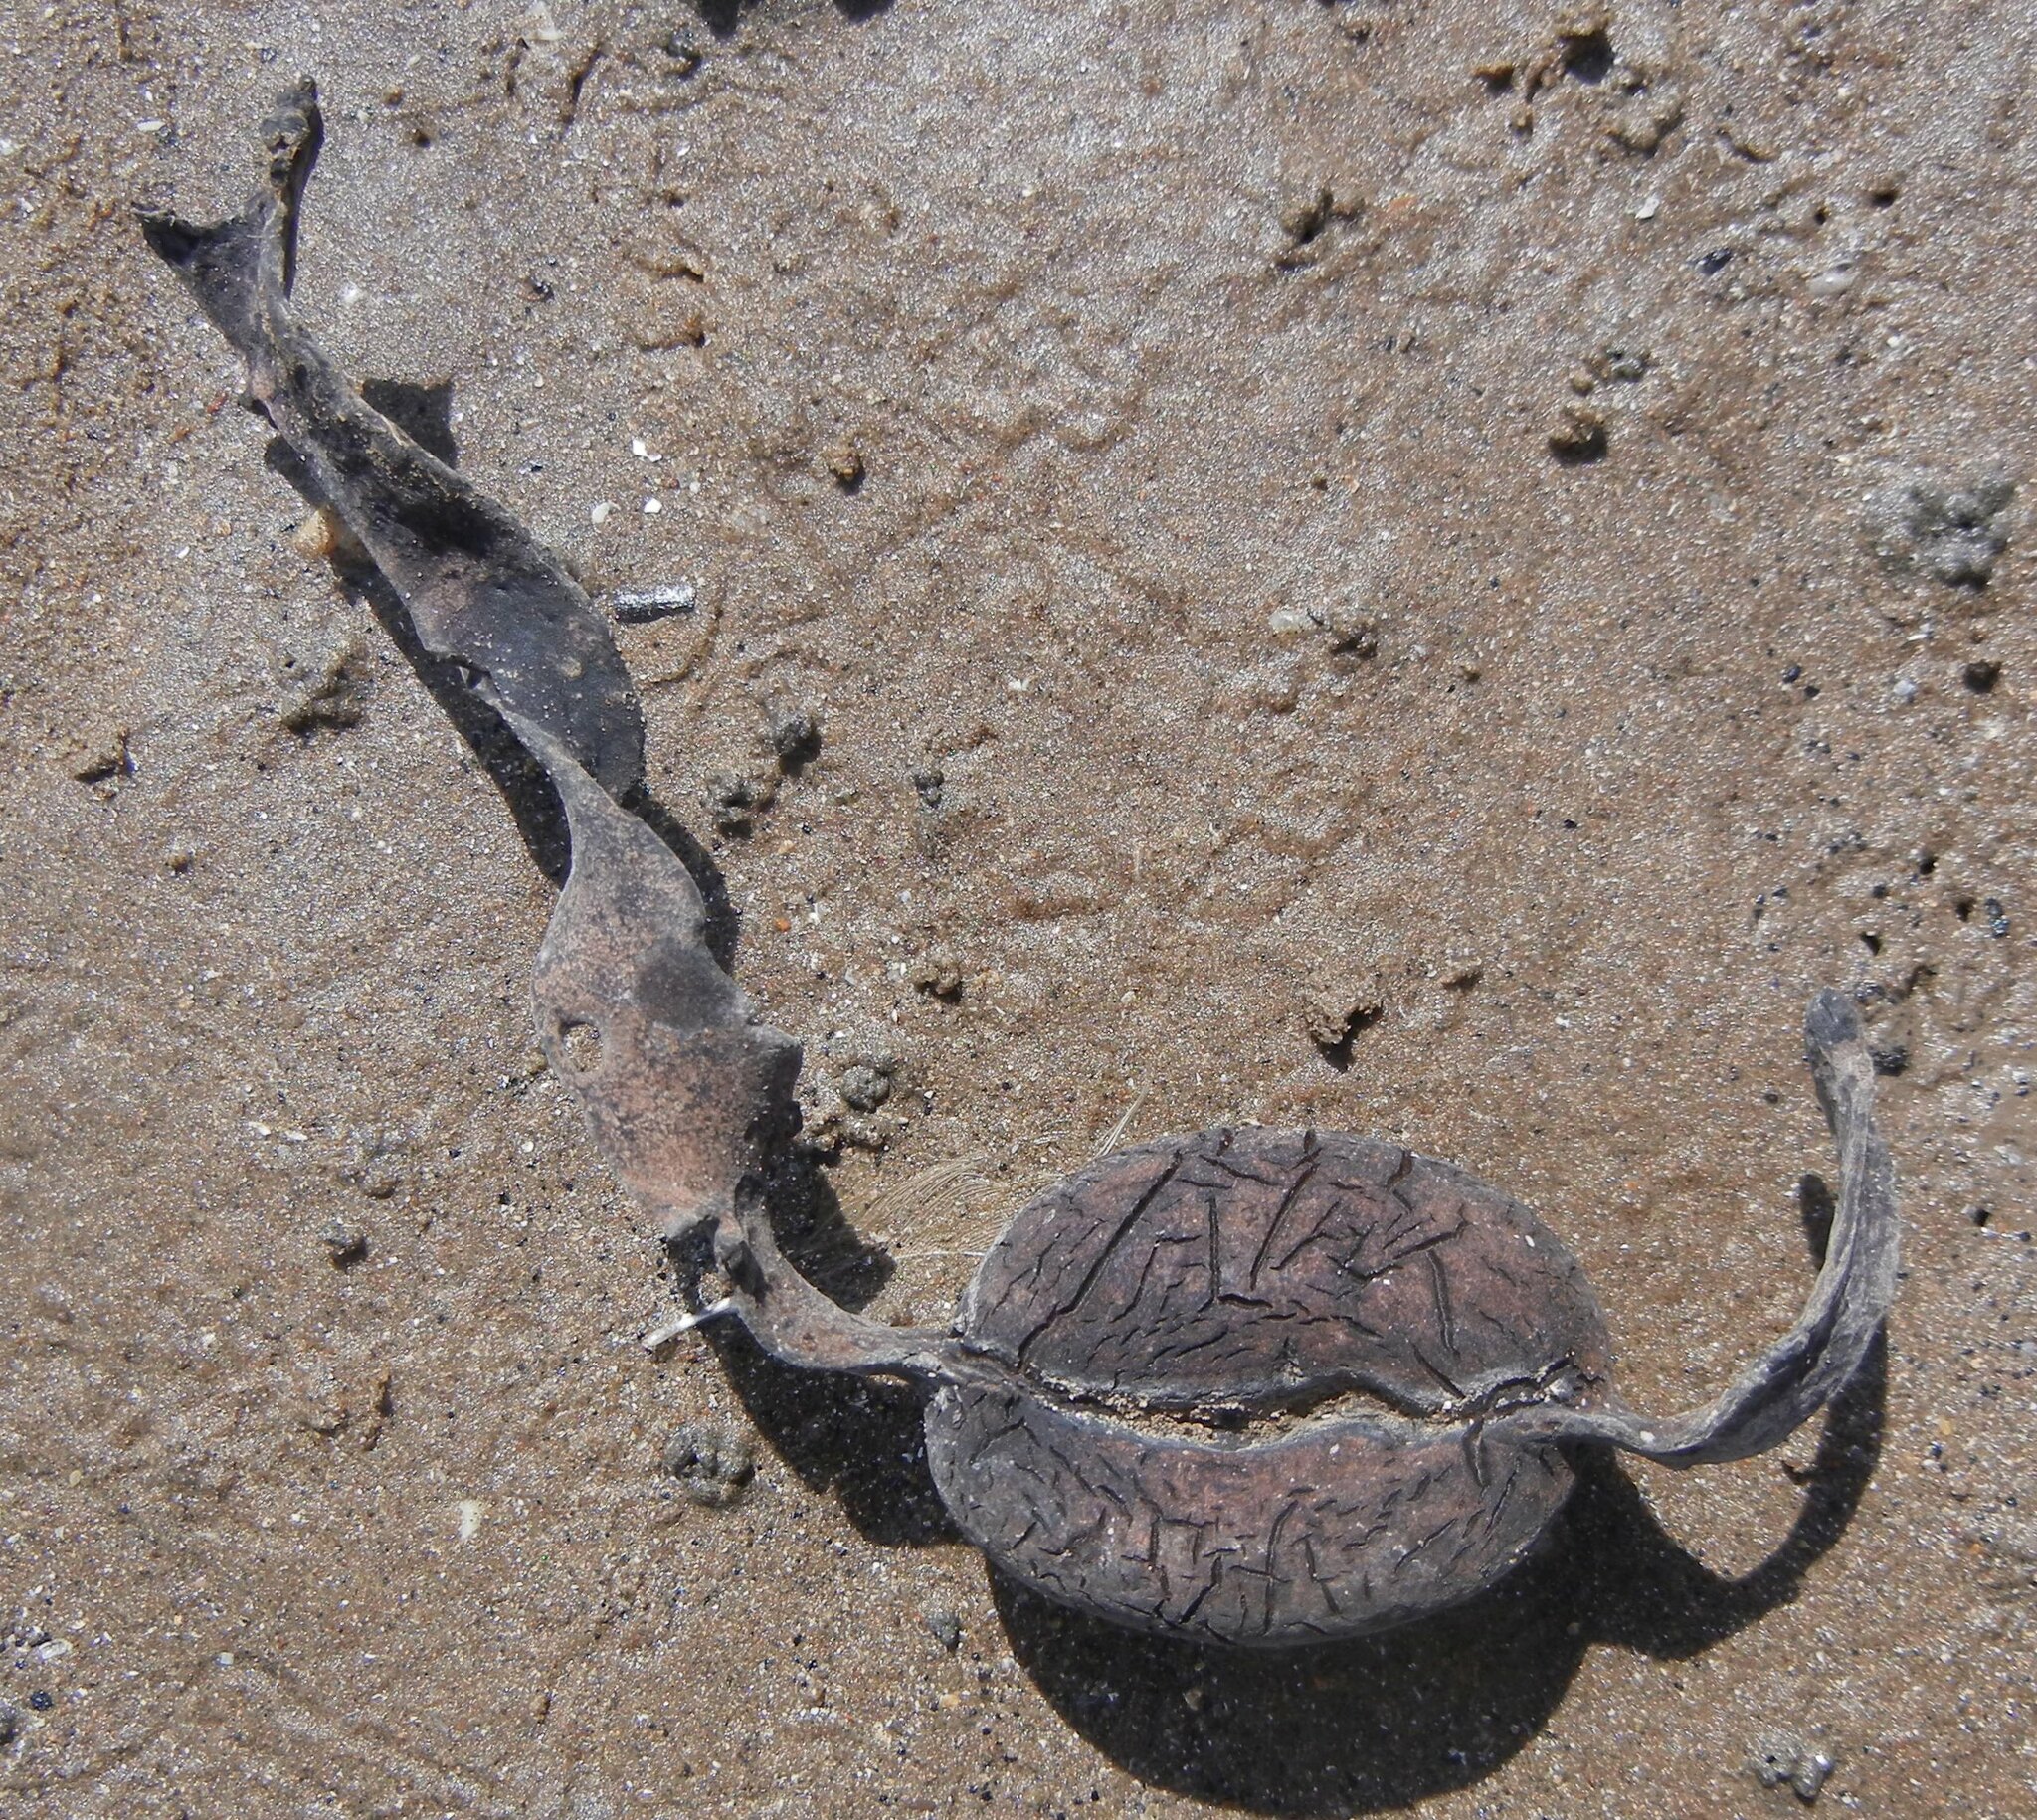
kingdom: Chromista
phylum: Ochrophyta
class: Phaeophyceae
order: Fucales
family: Fucaceae
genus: Ascophyllum
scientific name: Ascophyllum nodosum
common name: Knotted wrack
